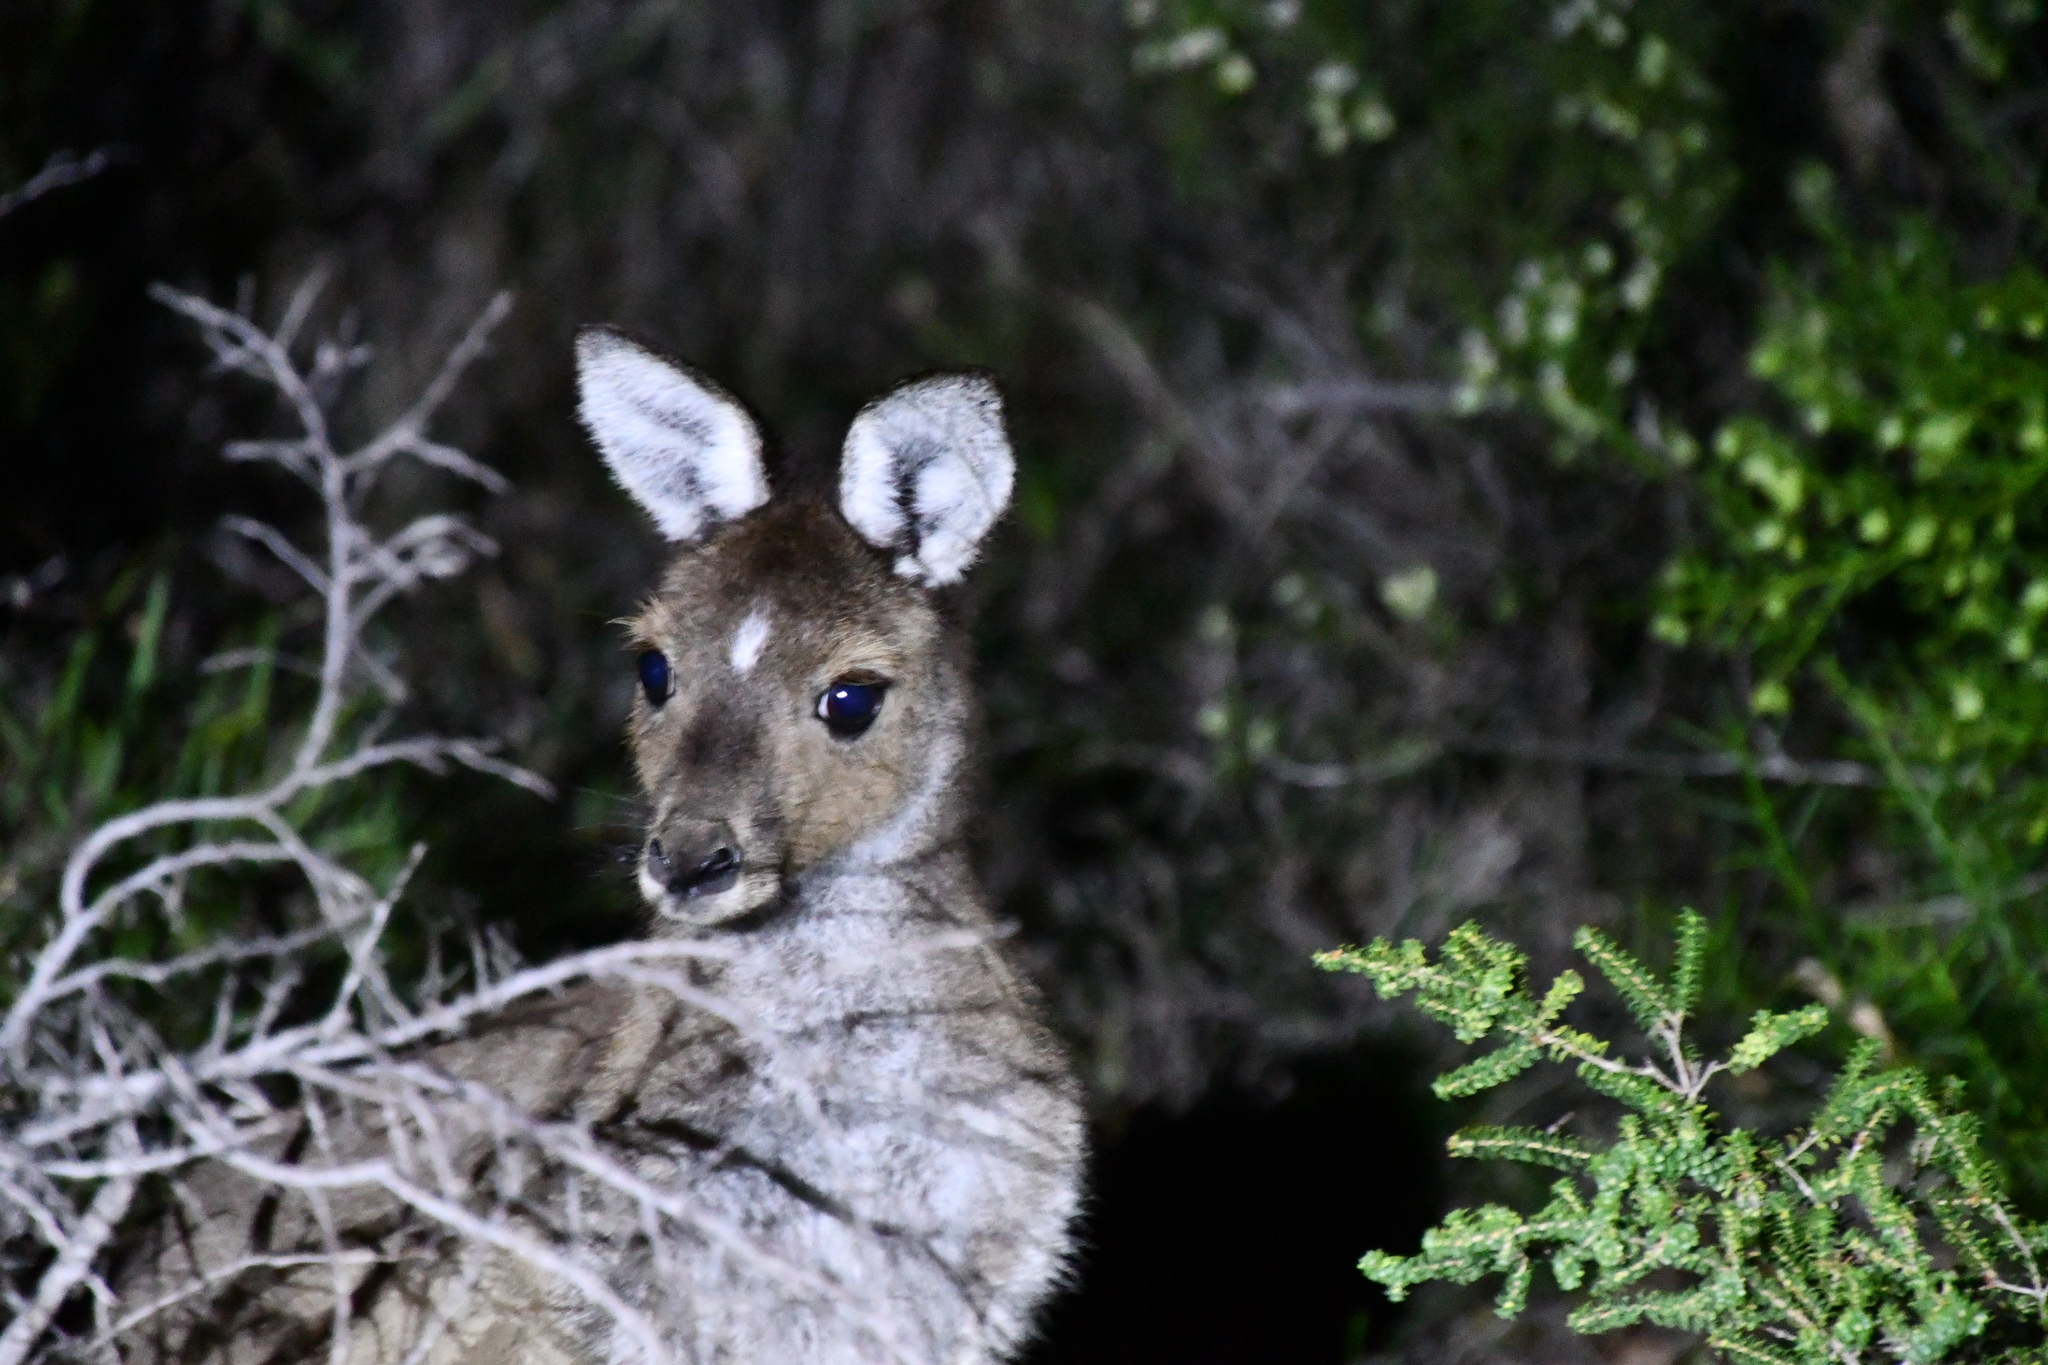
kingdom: Animalia
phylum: Chordata
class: Mammalia
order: Diprotodontia
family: Macropodidae
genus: Macropus
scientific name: Macropus fuliginosus
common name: Western grey kangaroo
